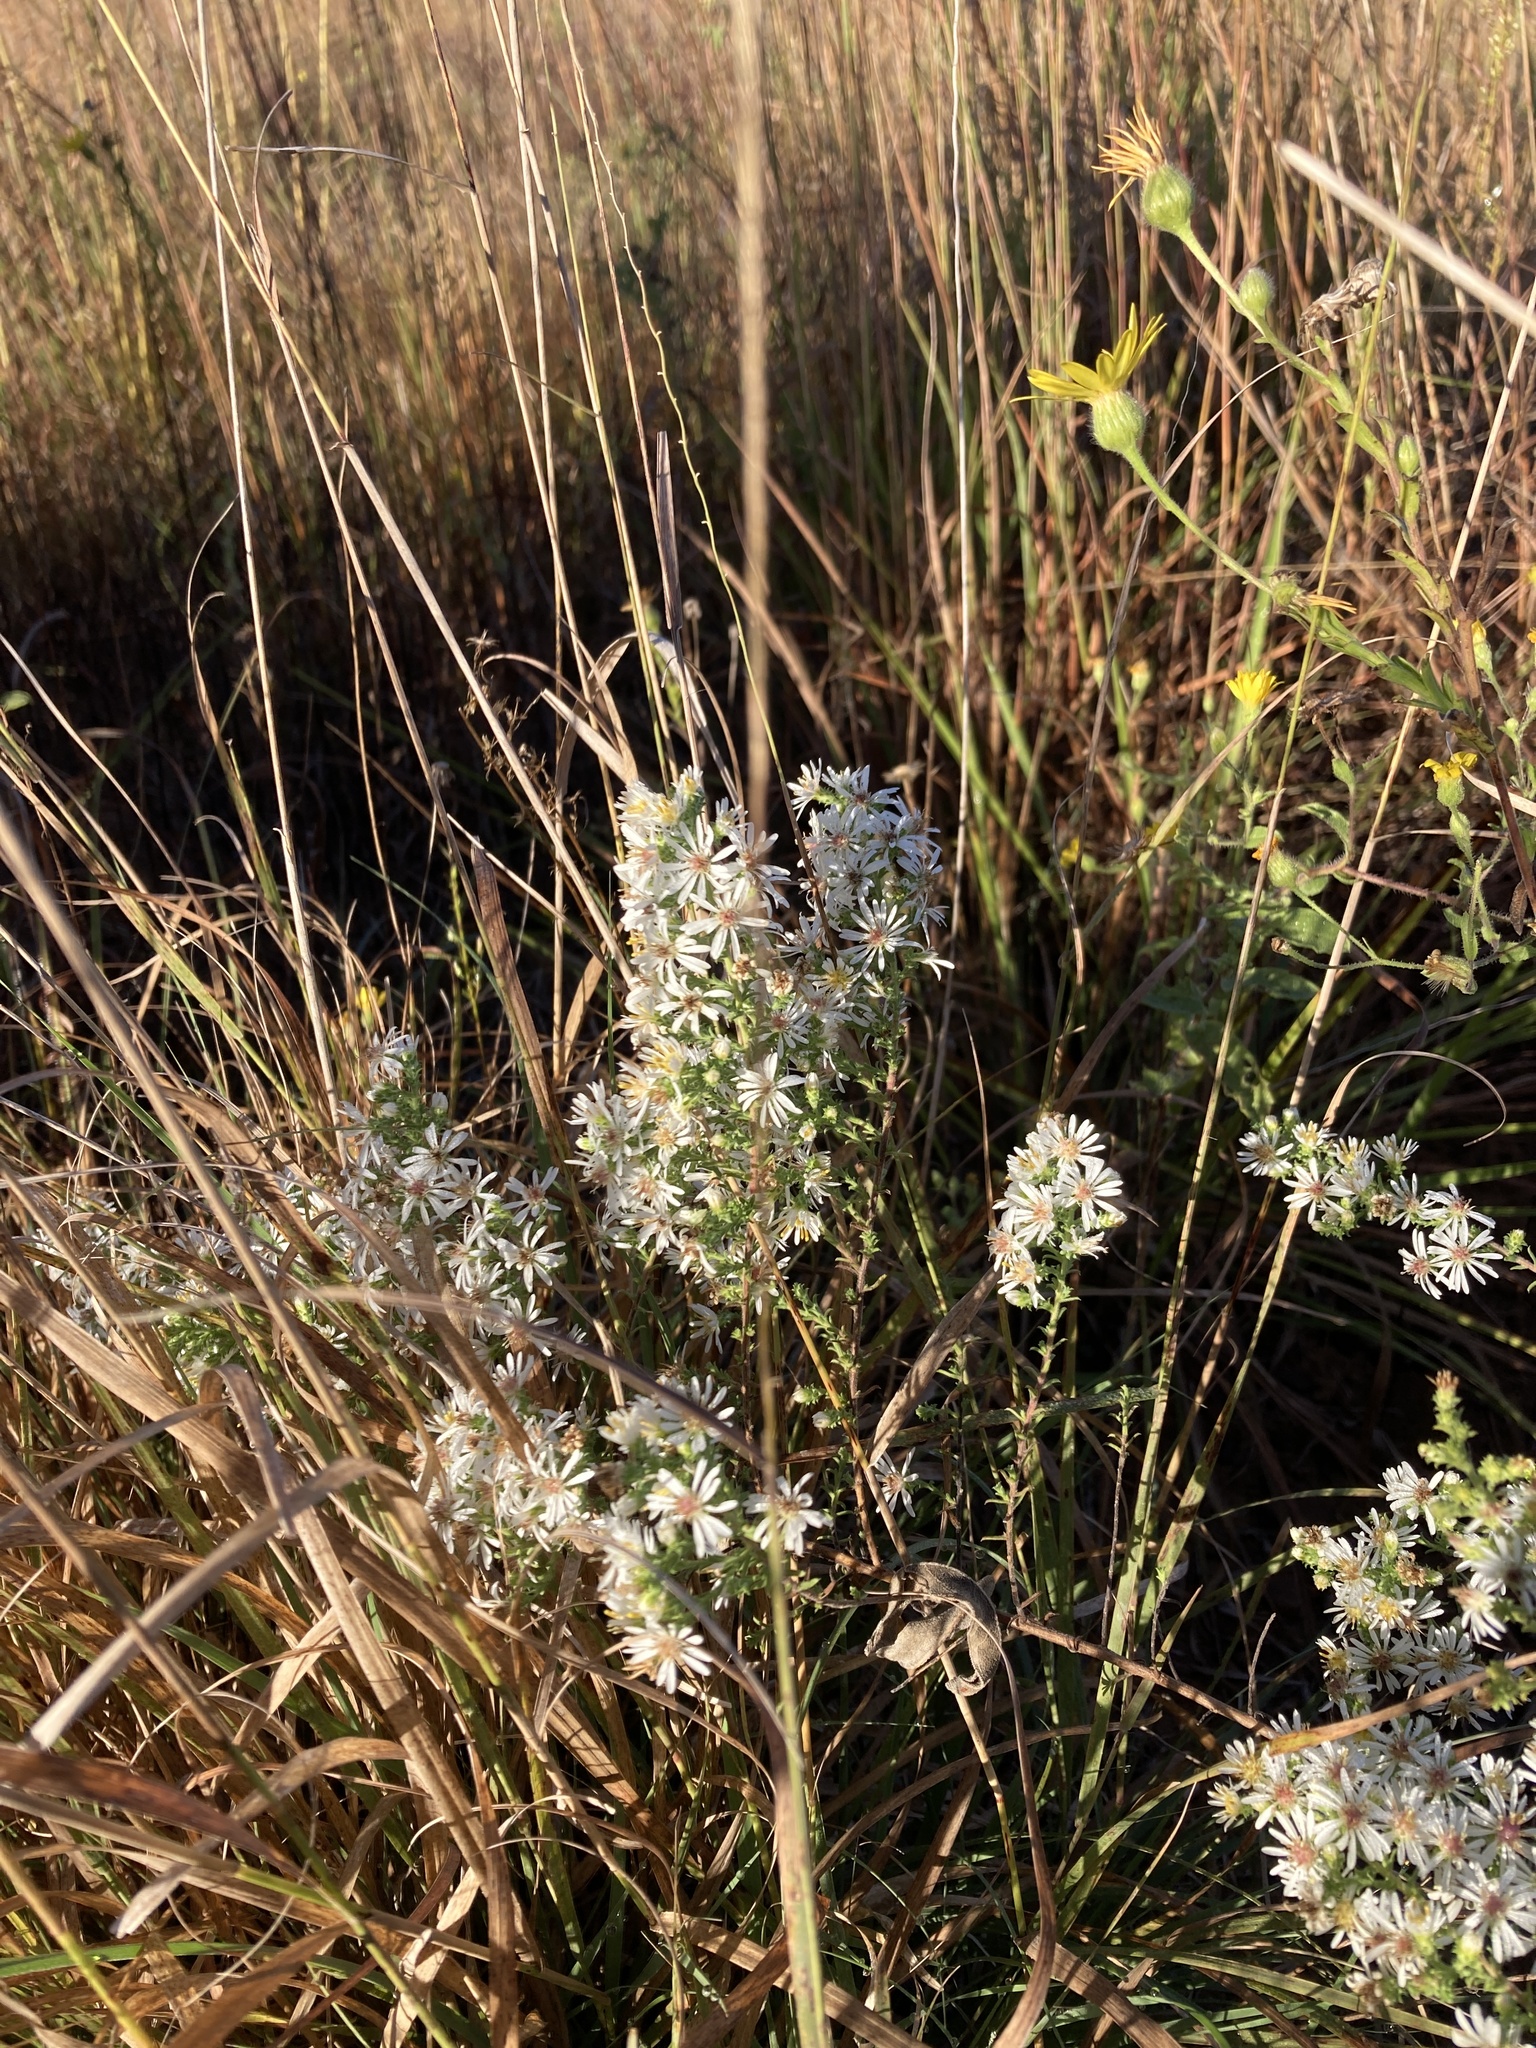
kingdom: Plantae
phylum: Tracheophyta
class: Magnoliopsida
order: Asterales
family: Asteraceae
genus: Symphyotrichum
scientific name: Symphyotrichum ericoides
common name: Heath aster
